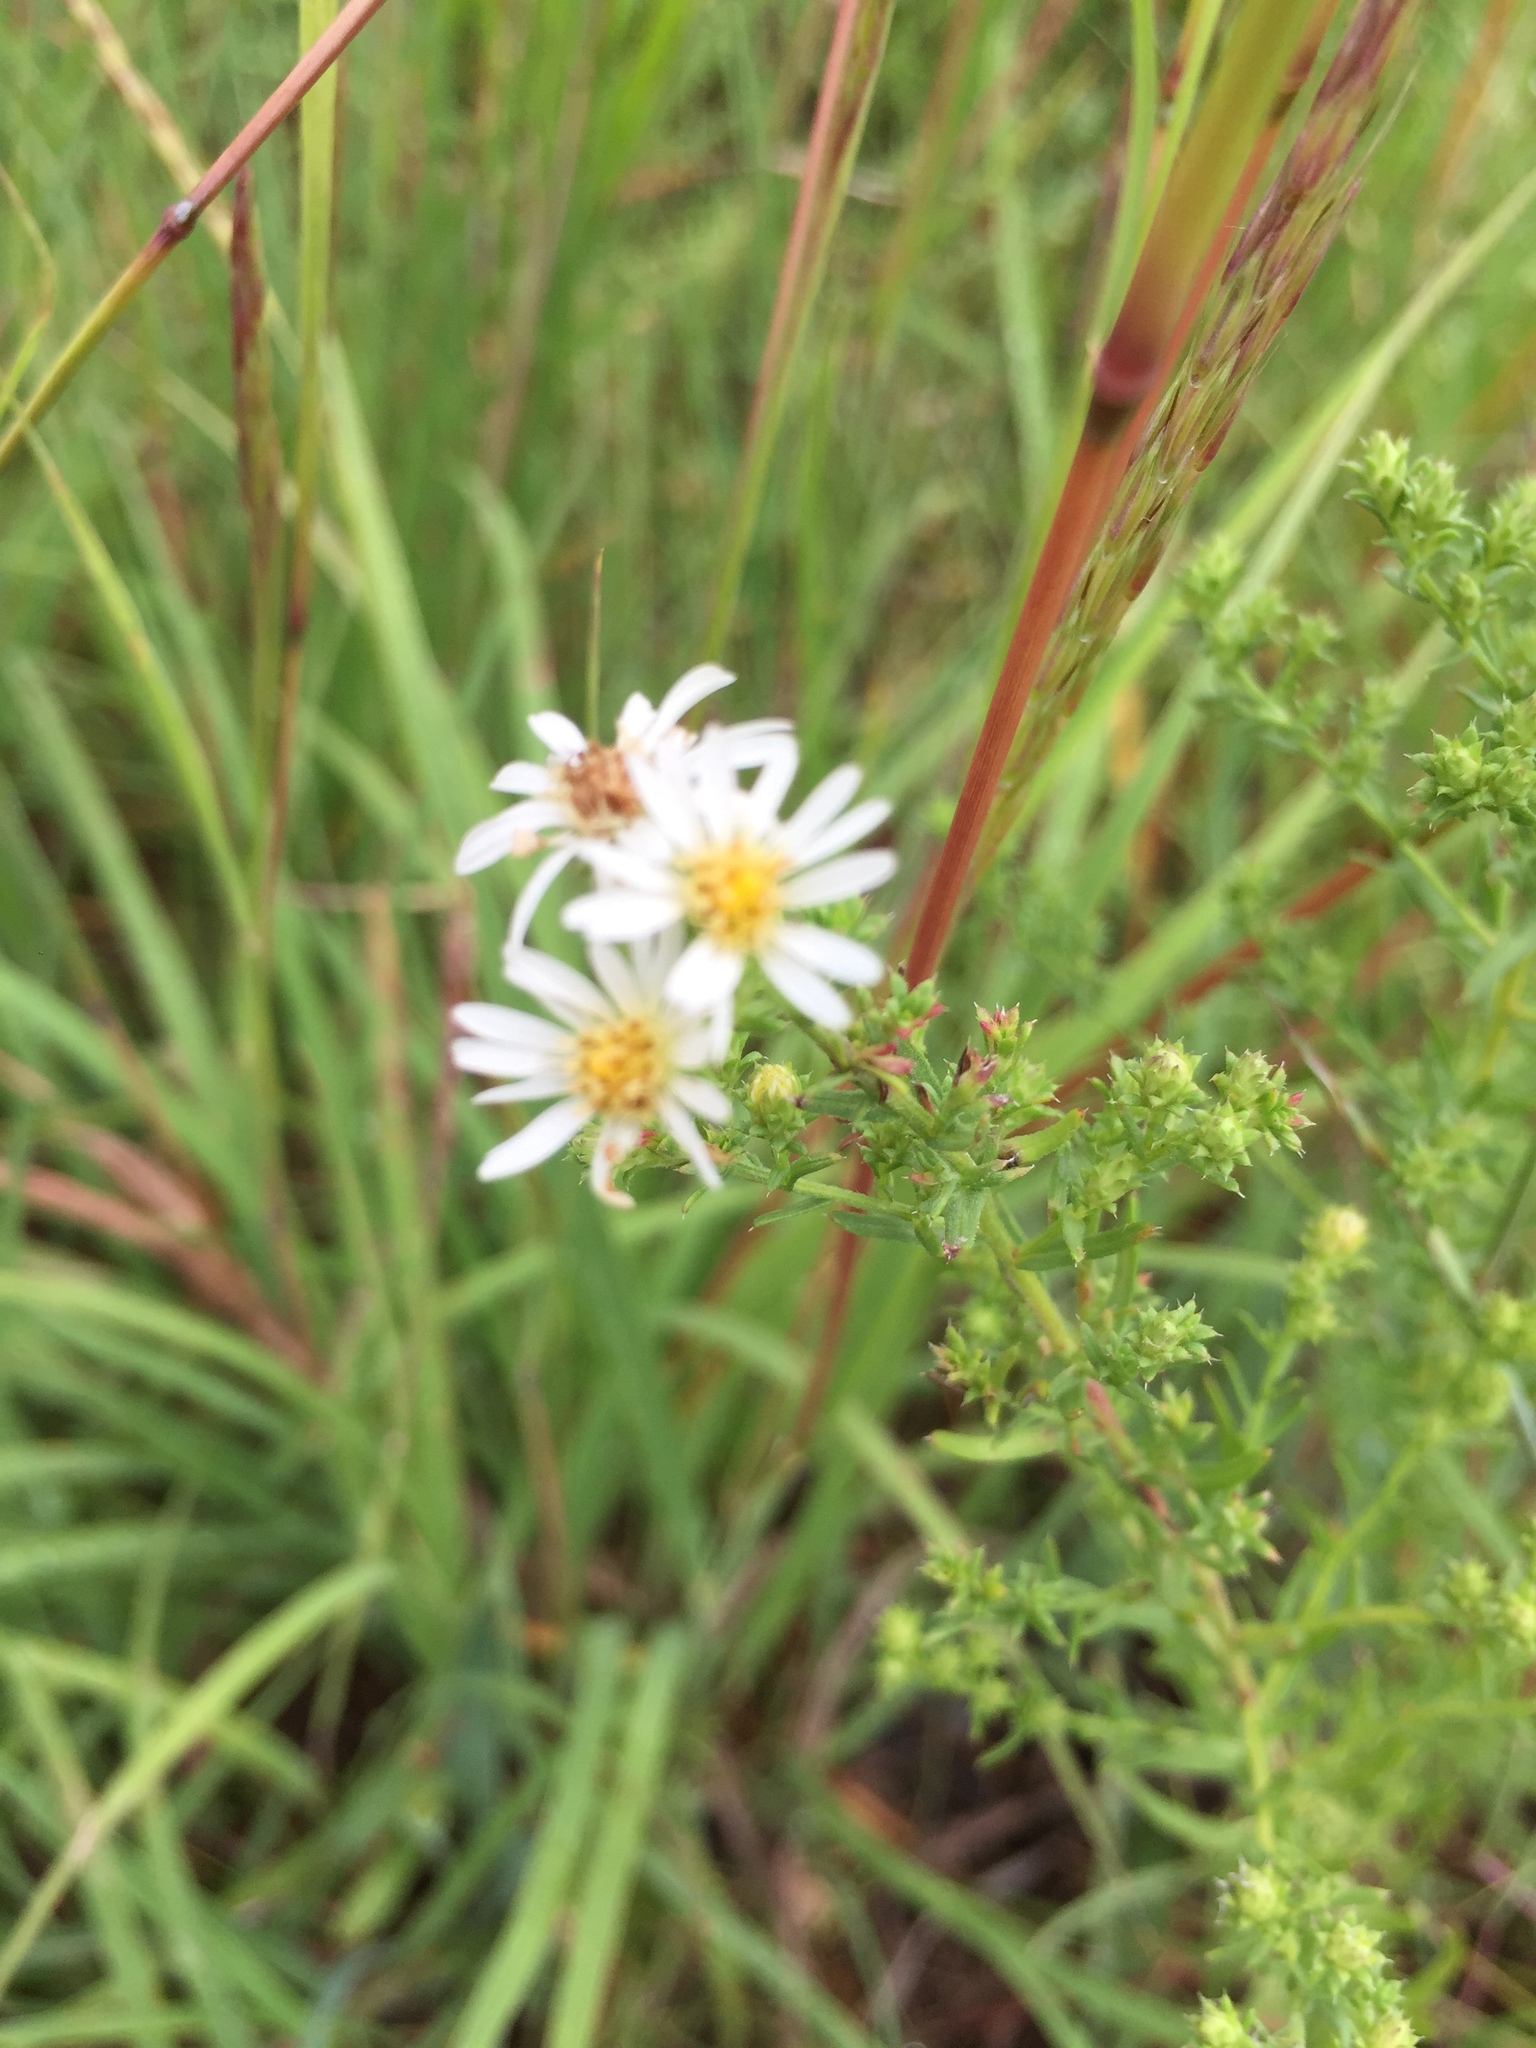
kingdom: Plantae
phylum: Tracheophyta
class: Magnoliopsida
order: Asterales
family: Asteraceae
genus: Symphyotrichum
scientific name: Symphyotrichum ericoides
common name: Heath aster
